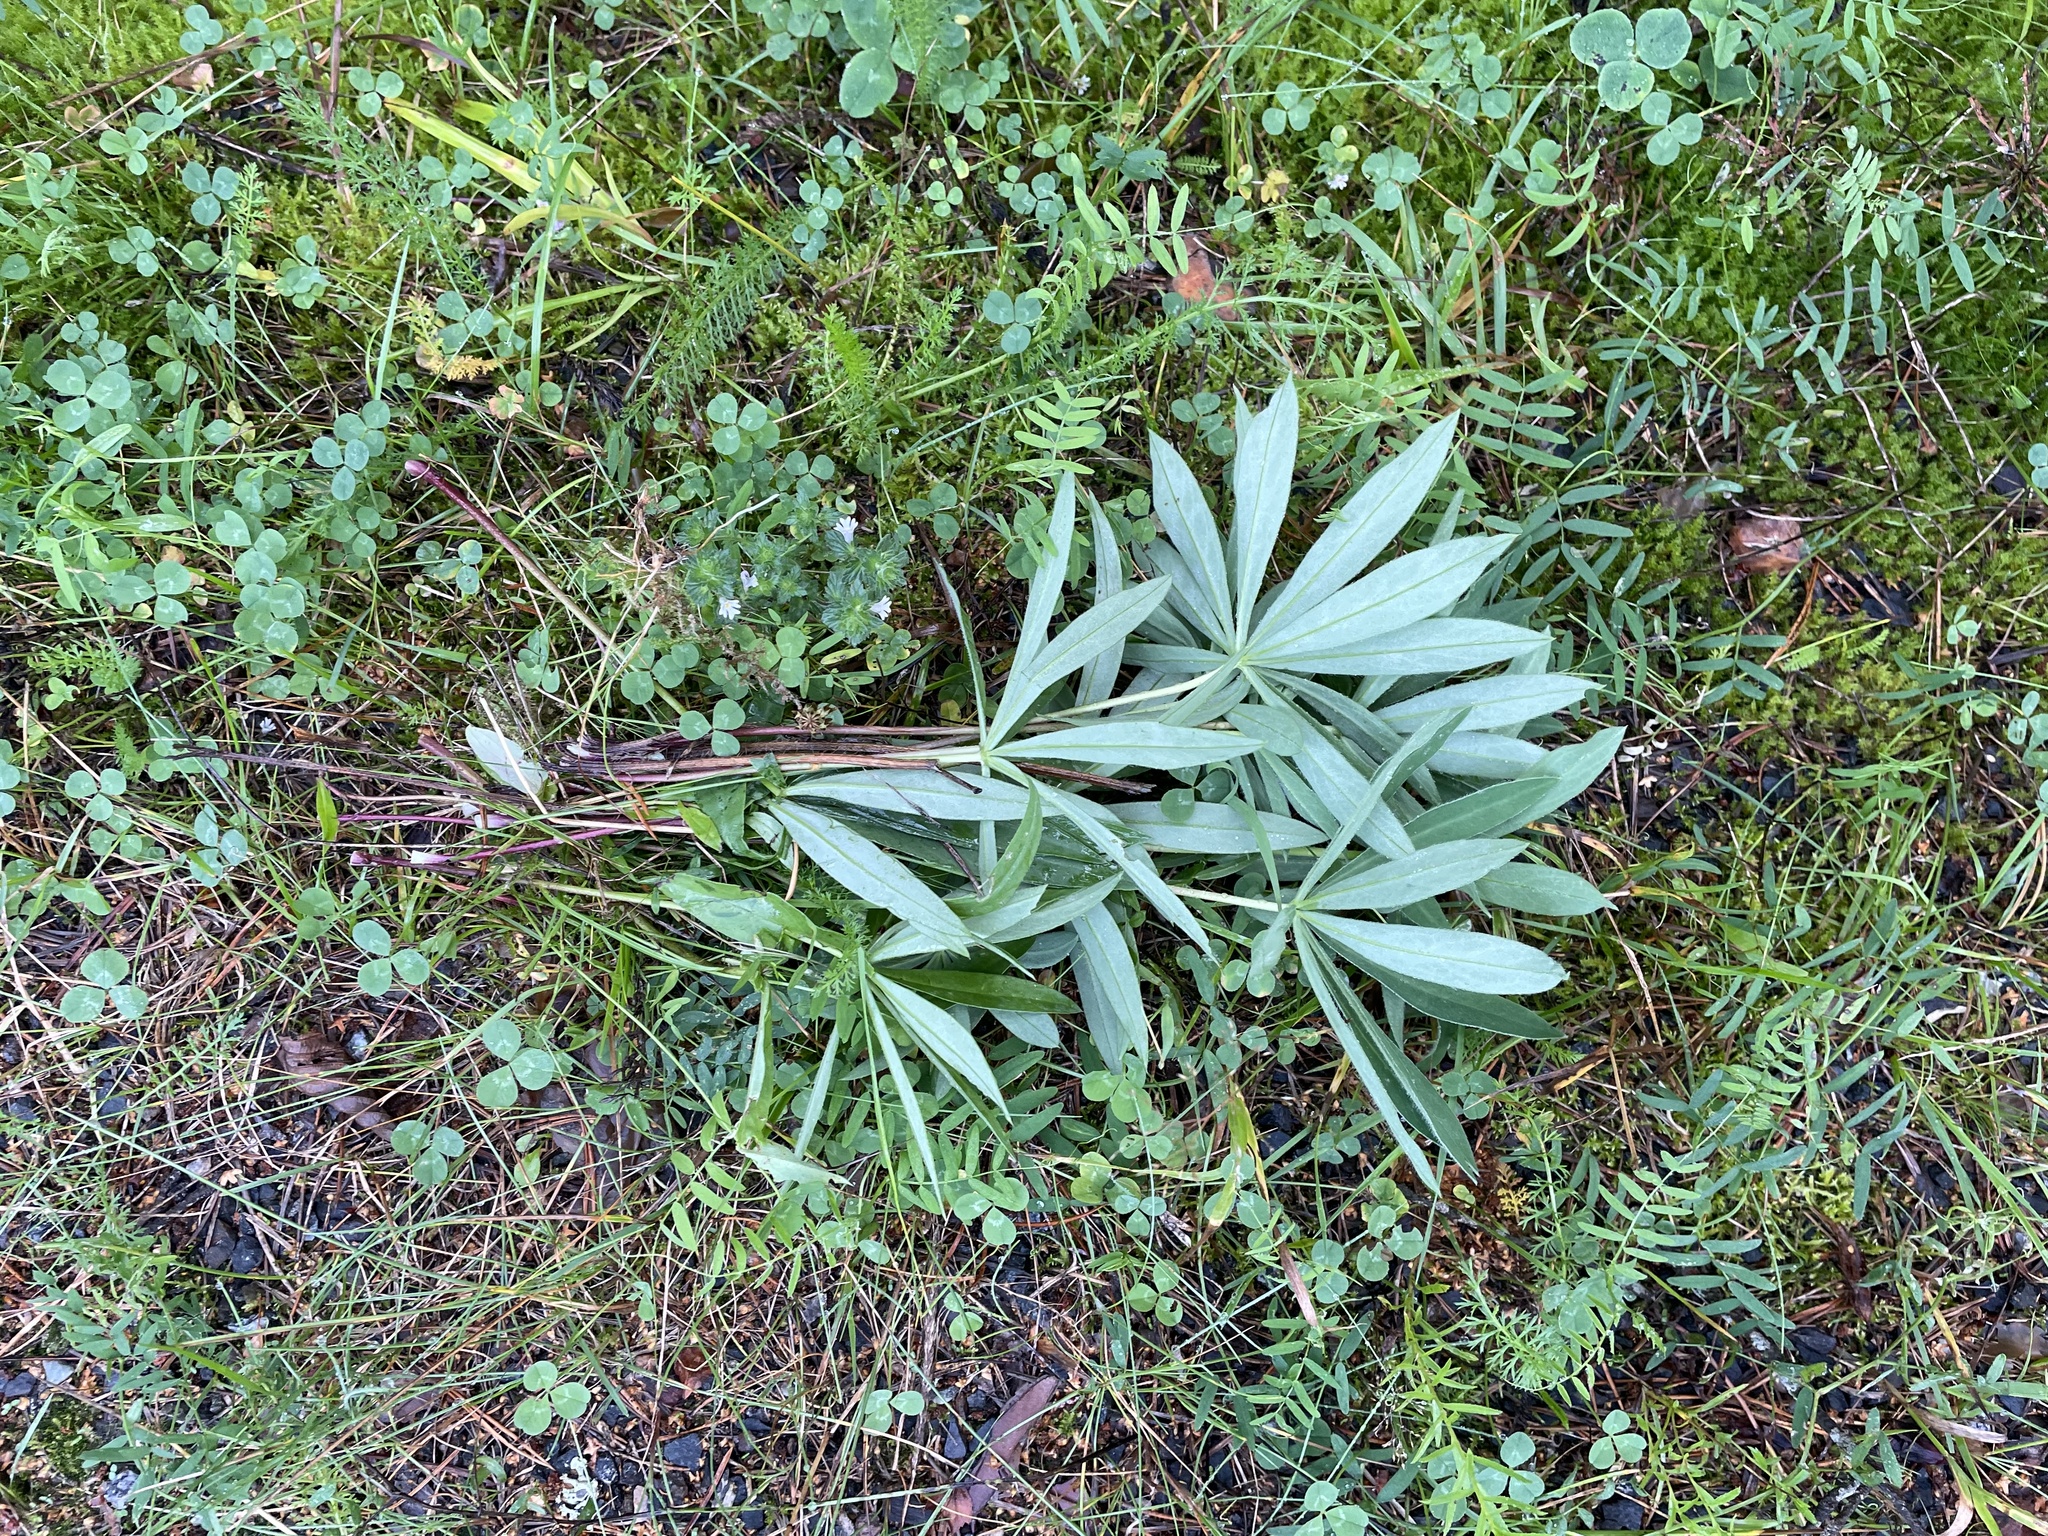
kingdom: Plantae
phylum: Tracheophyta
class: Magnoliopsida
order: Fabales
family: Fabaceae
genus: Lupinus
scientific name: Lupinus polyphyllus
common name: Garden lupin
